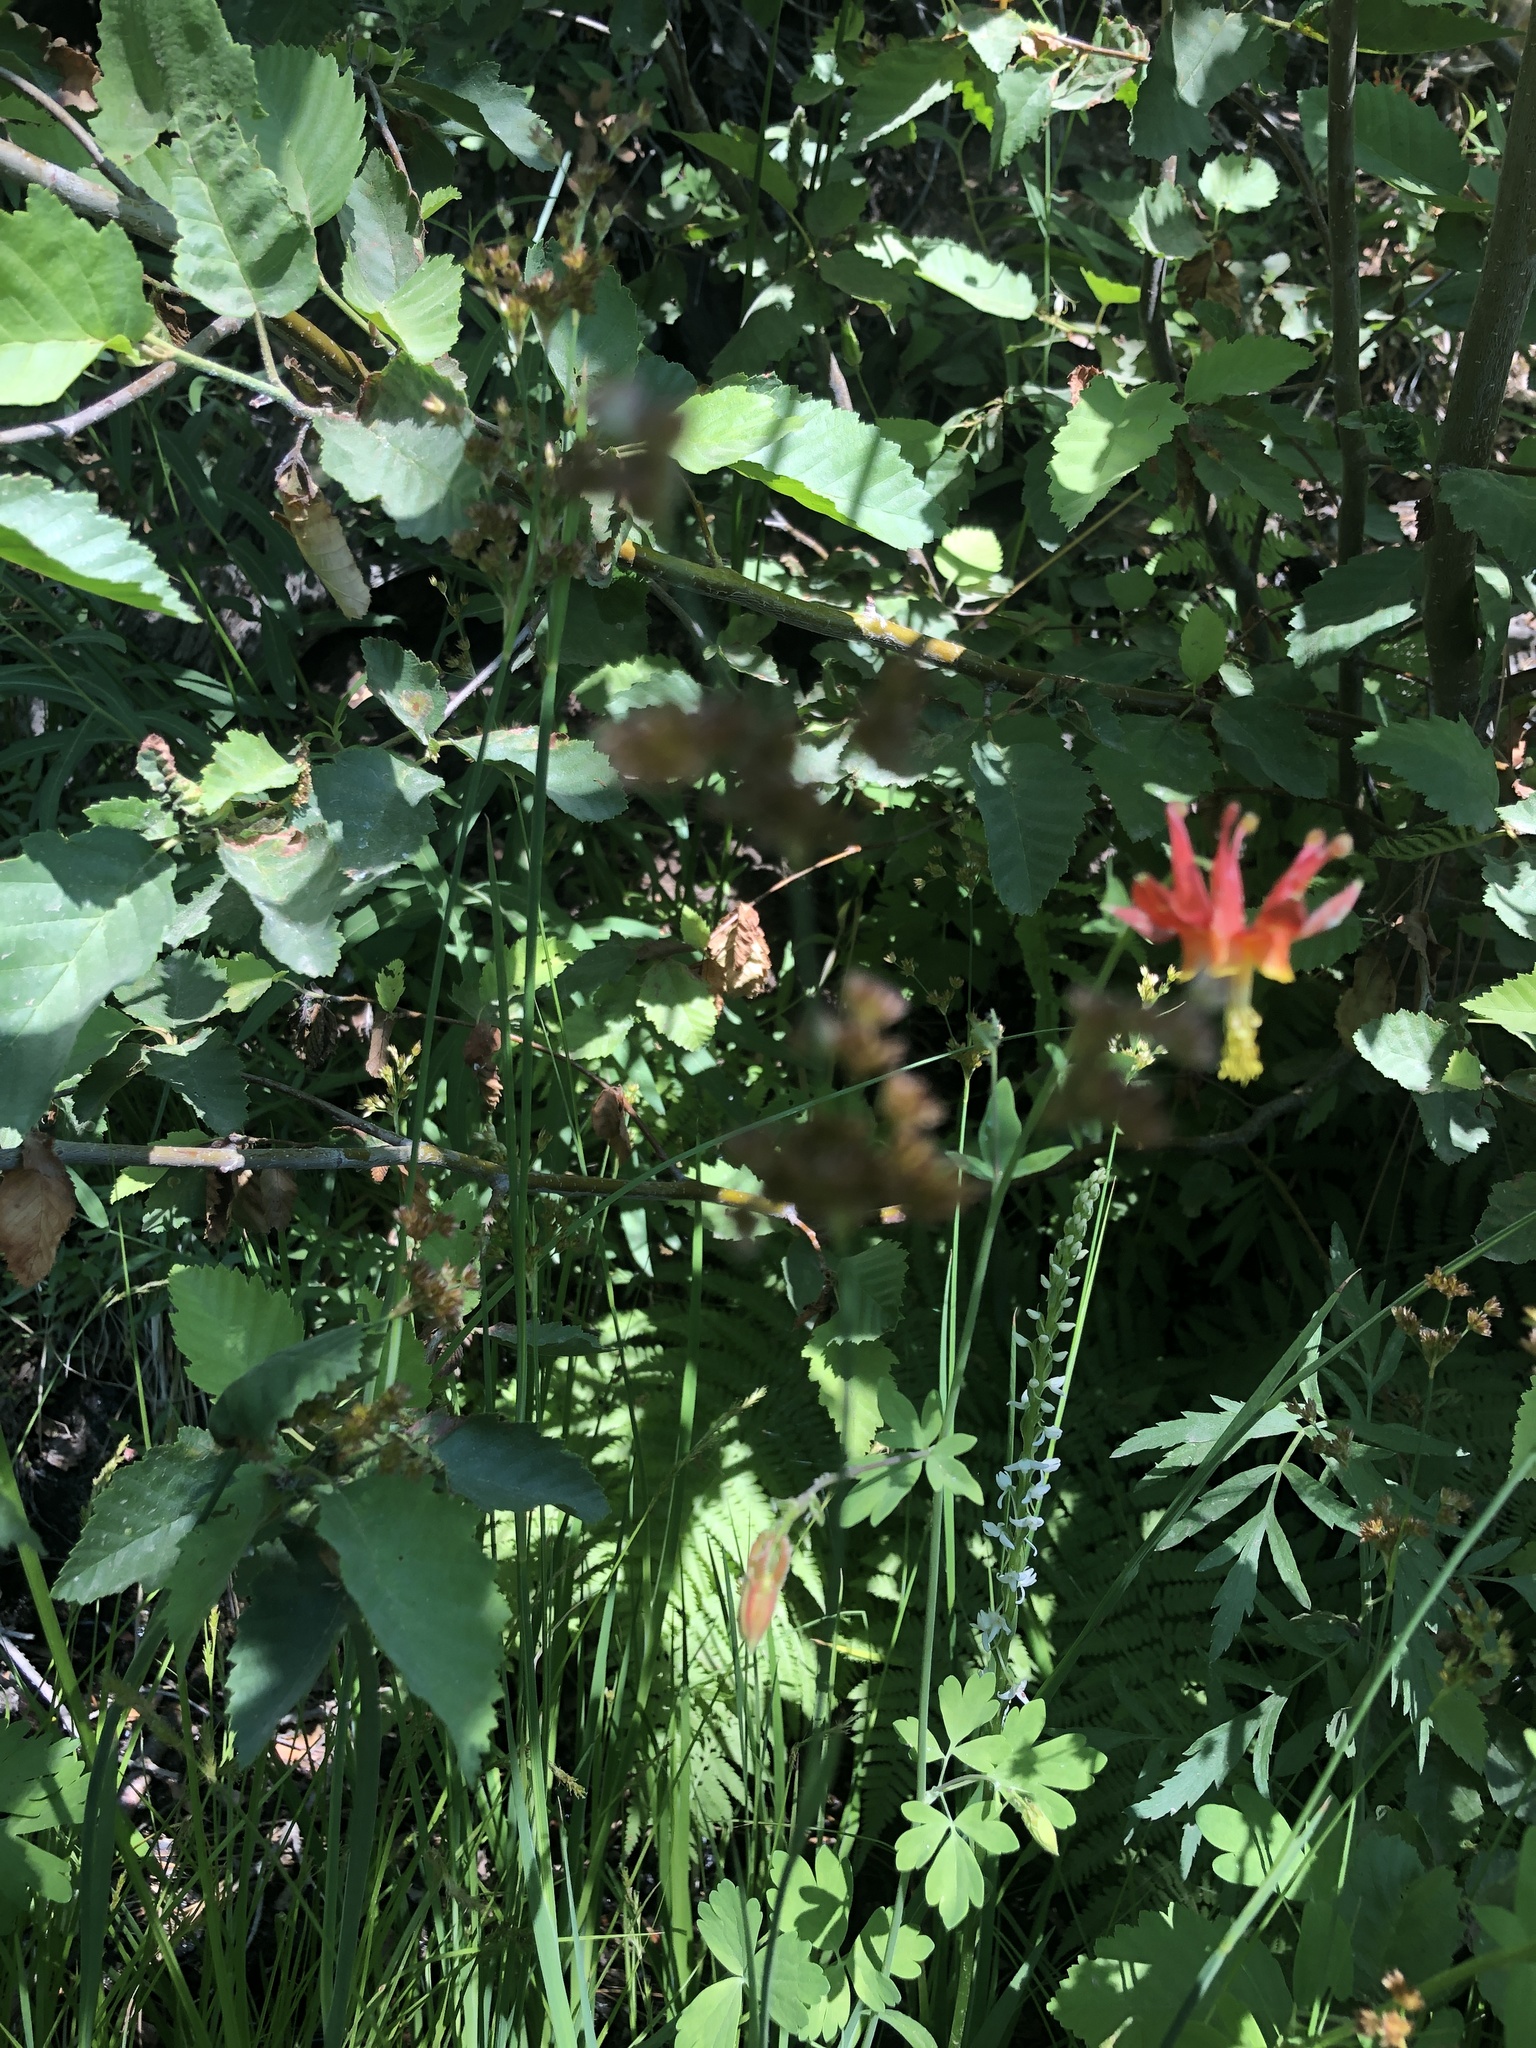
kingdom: Plantae
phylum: Tracheophyta
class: Liliopsida
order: Asparagales
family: Orchidaceae
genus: Platanthera
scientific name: Platanthera dilatata
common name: Bog candles
